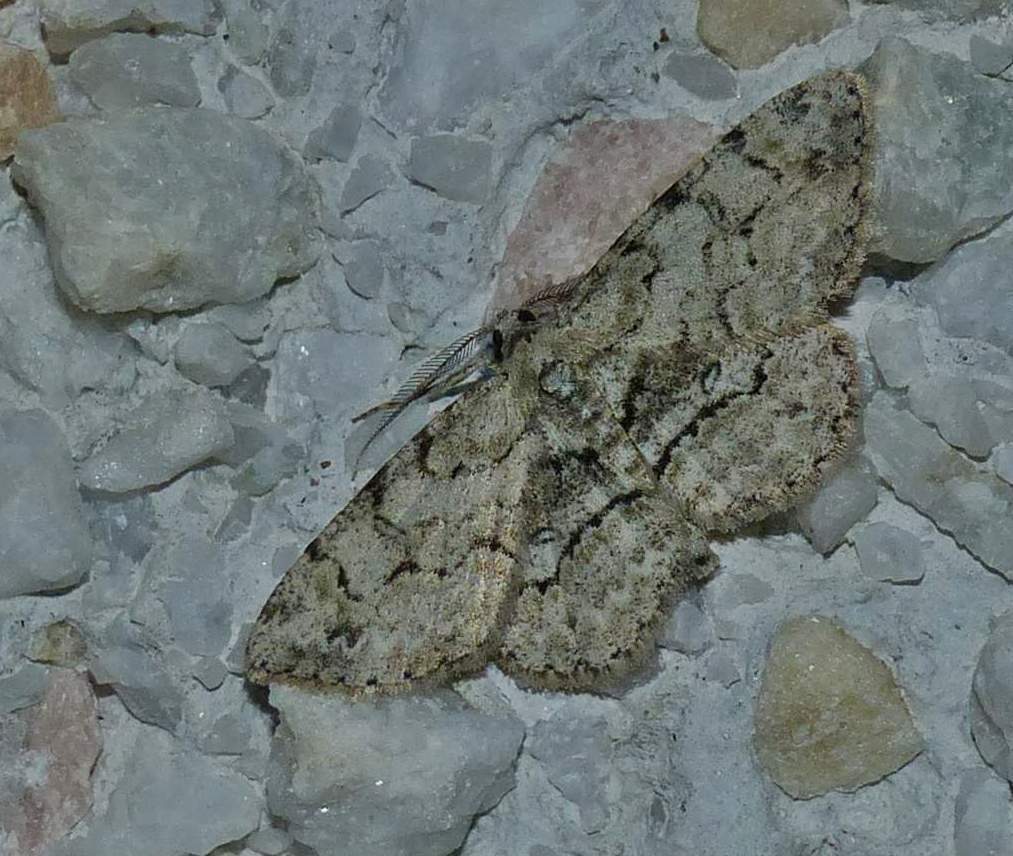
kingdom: Animalia
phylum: Arthropoda
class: Insecta
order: Lepidoptera
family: Geometridae
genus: Iridopsis
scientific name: Iridopsis ephyraria
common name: Pale-winged gray
